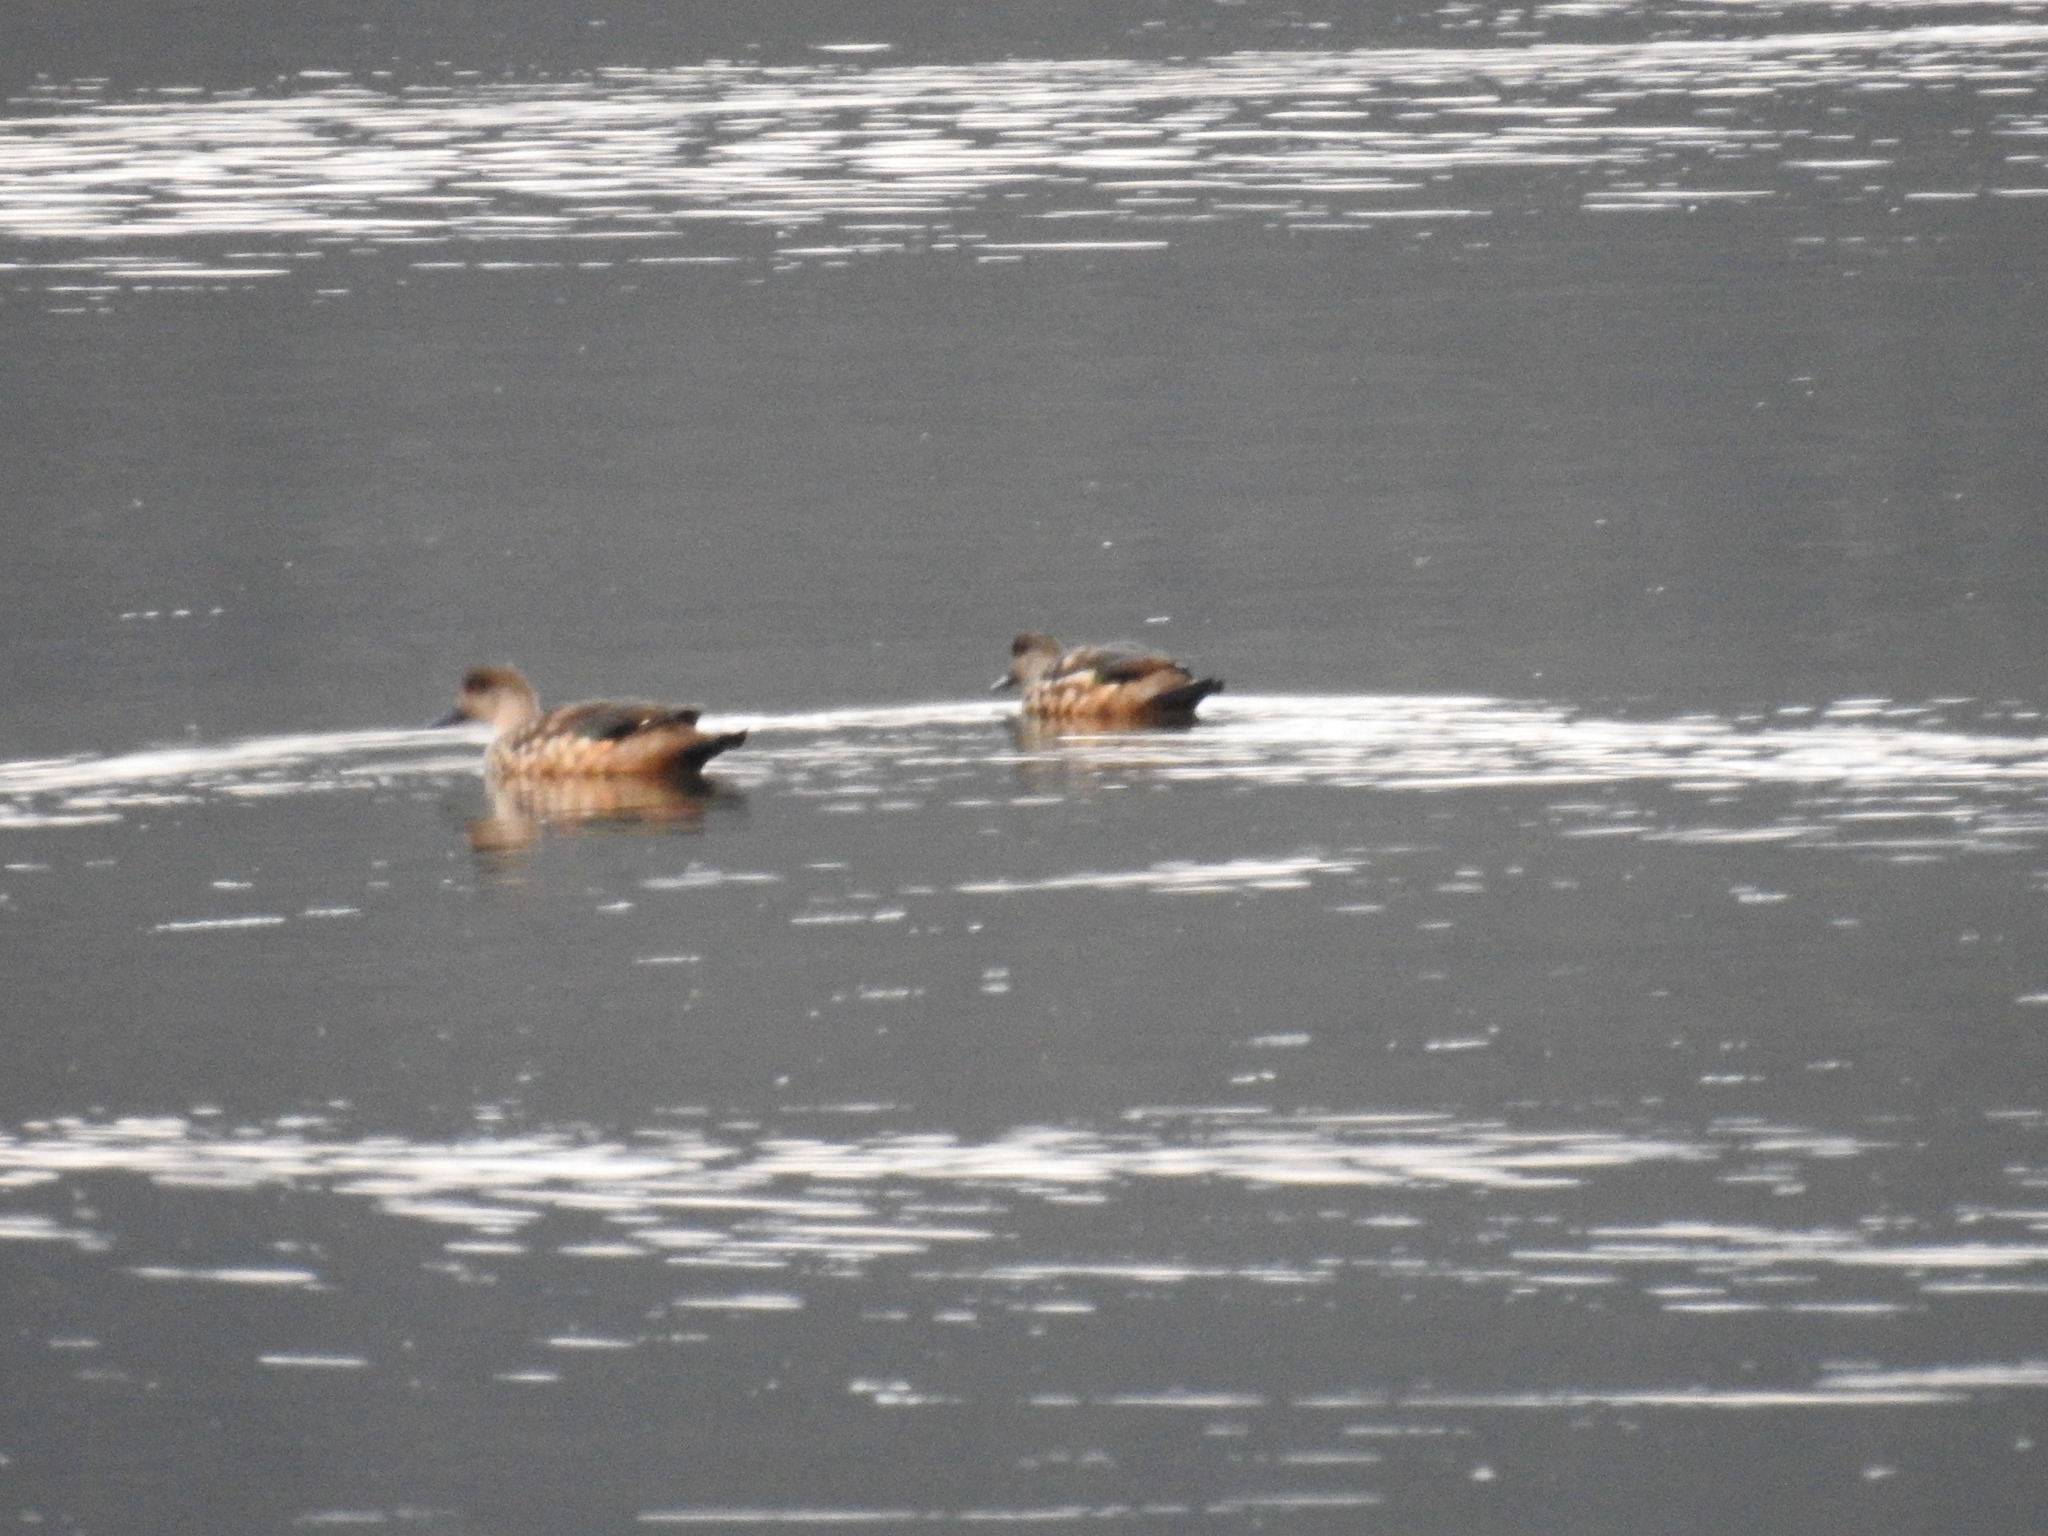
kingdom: Animalia
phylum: Chordata
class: Aves
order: Anseriformes
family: Anatidae
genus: Lophonetta
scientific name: Lophonetta specularioides
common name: Crested duck
